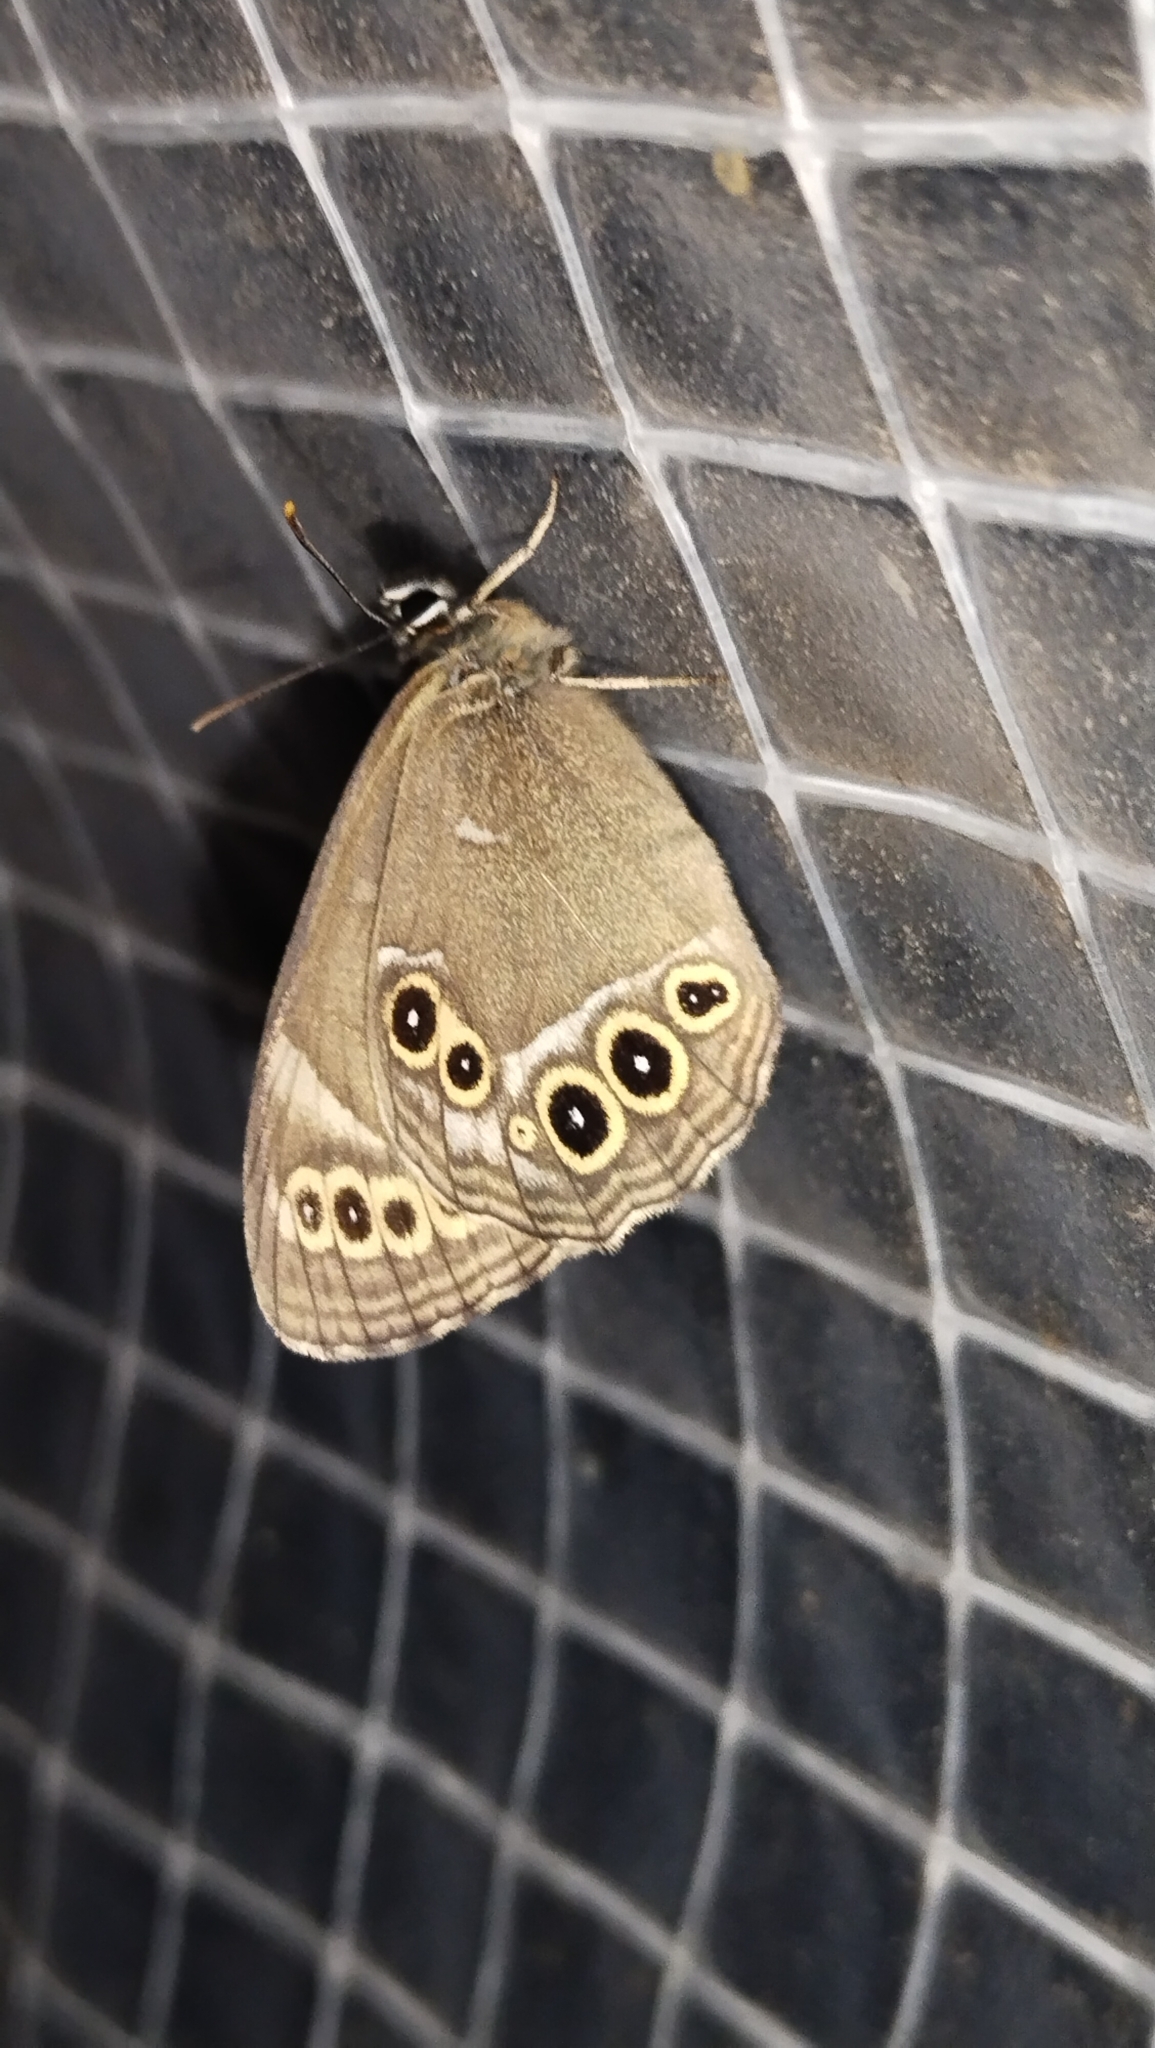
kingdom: Animalia
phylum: Arthropoda
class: Insecta
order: Lepidoptera
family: Nymphalidae
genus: Pararge
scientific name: Pararge Lopinga achine
